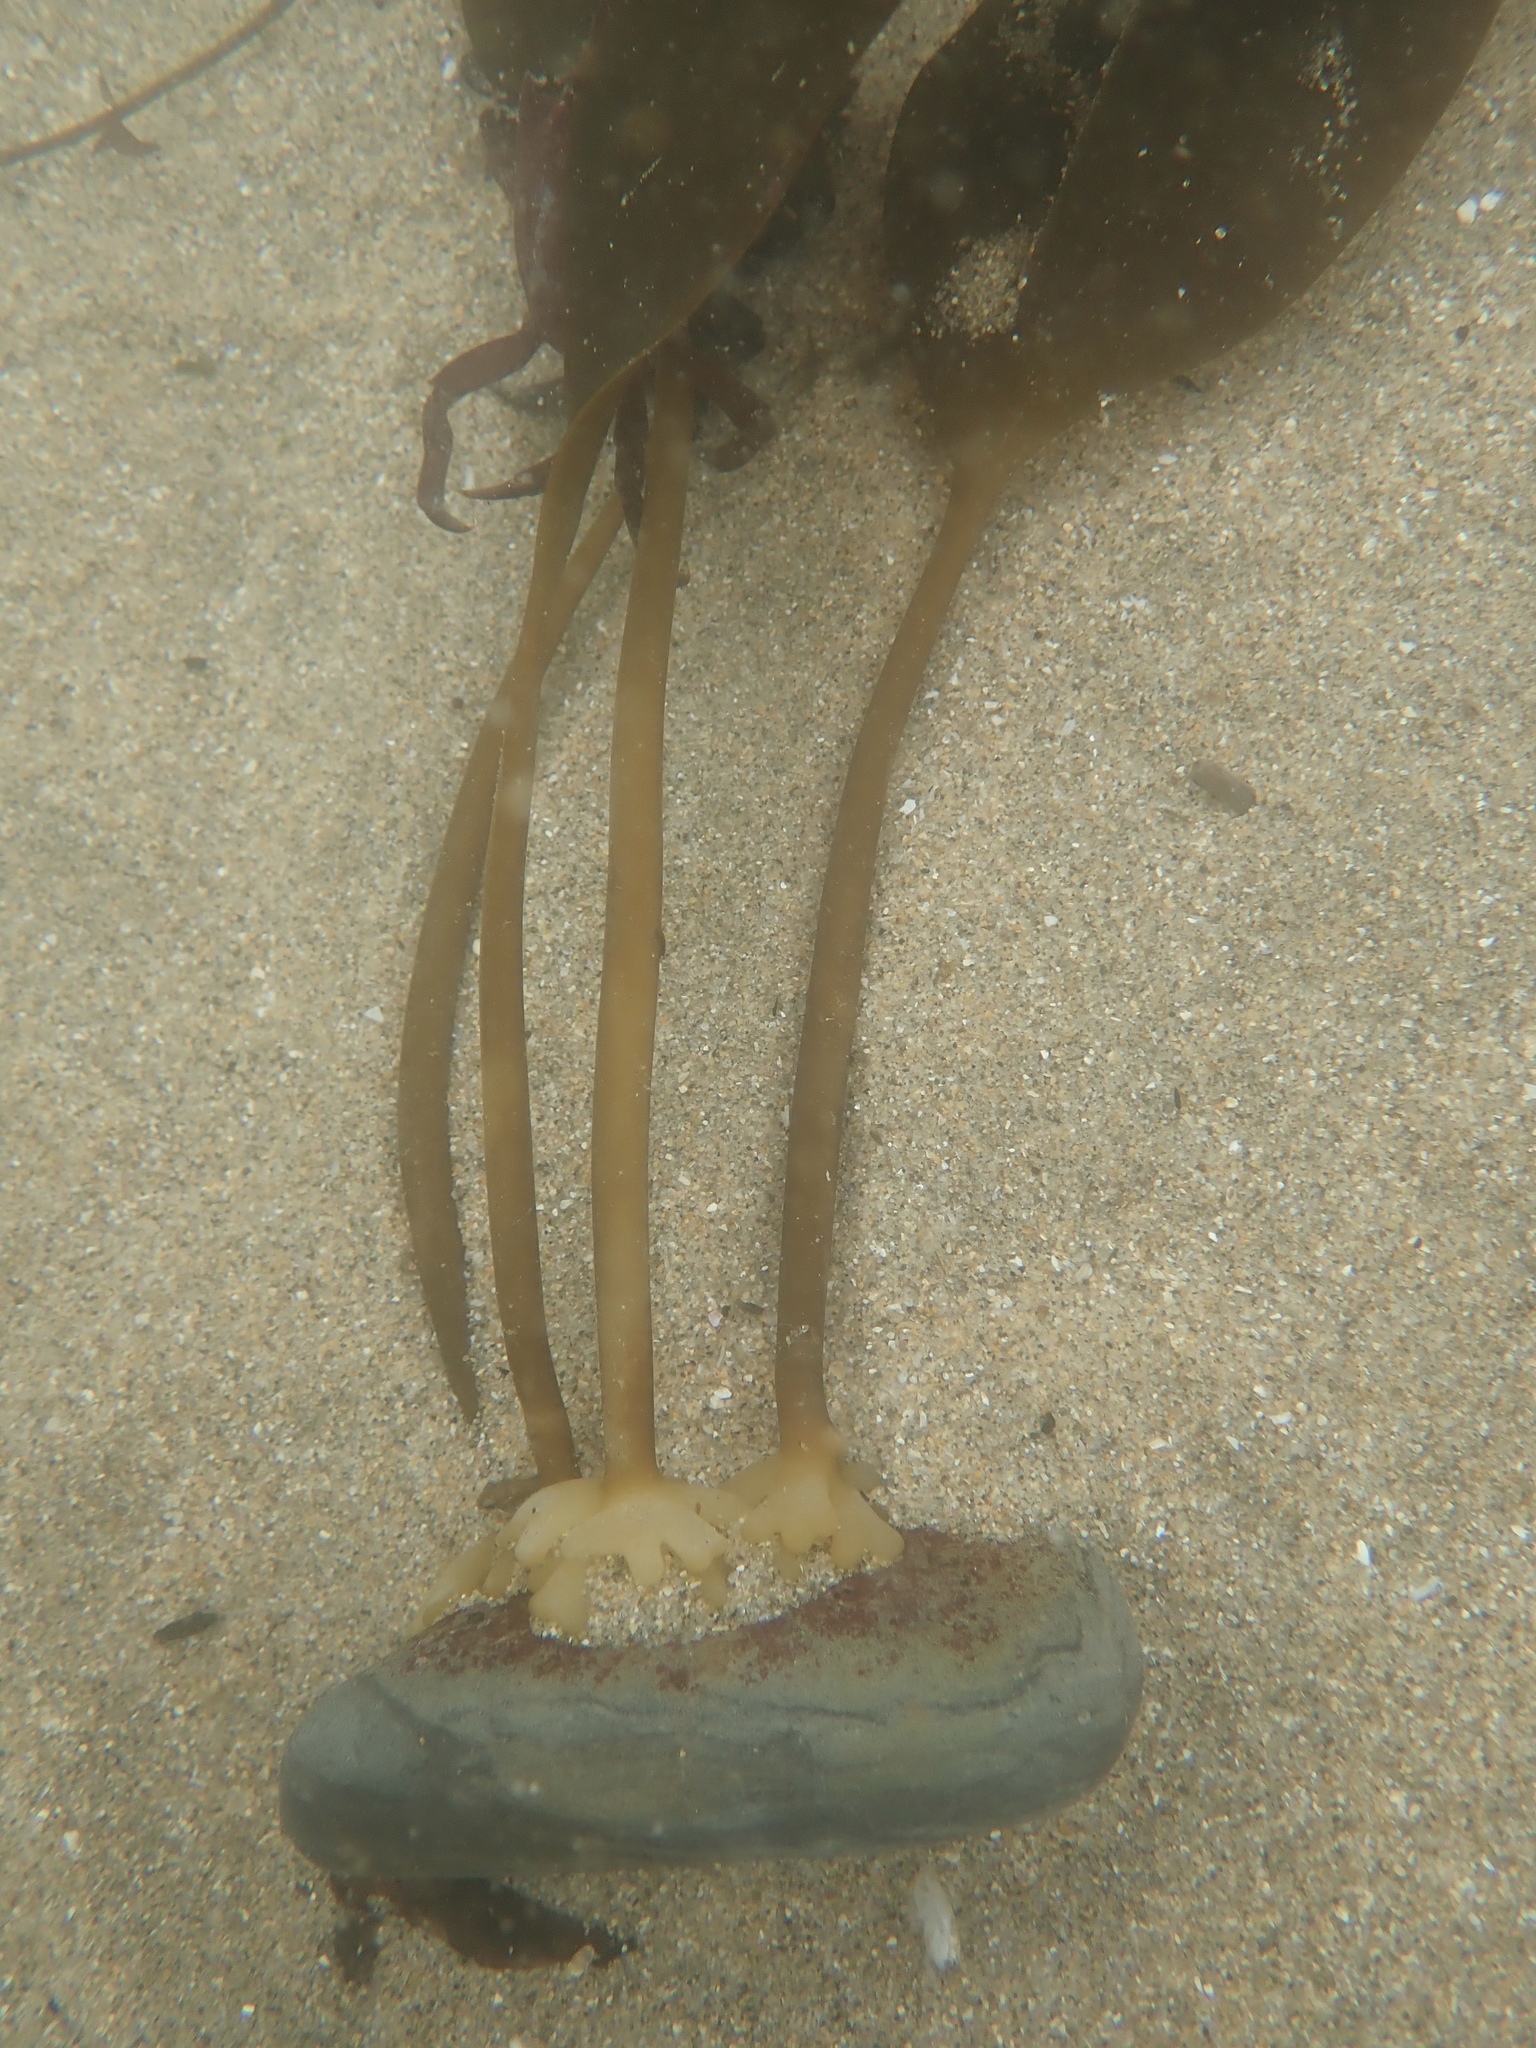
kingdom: Chromista
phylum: Ochrophyta
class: Phaeophyceae
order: Laminariales
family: Laminariaceae
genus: Laminaria
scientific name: Laminaria setchellii
